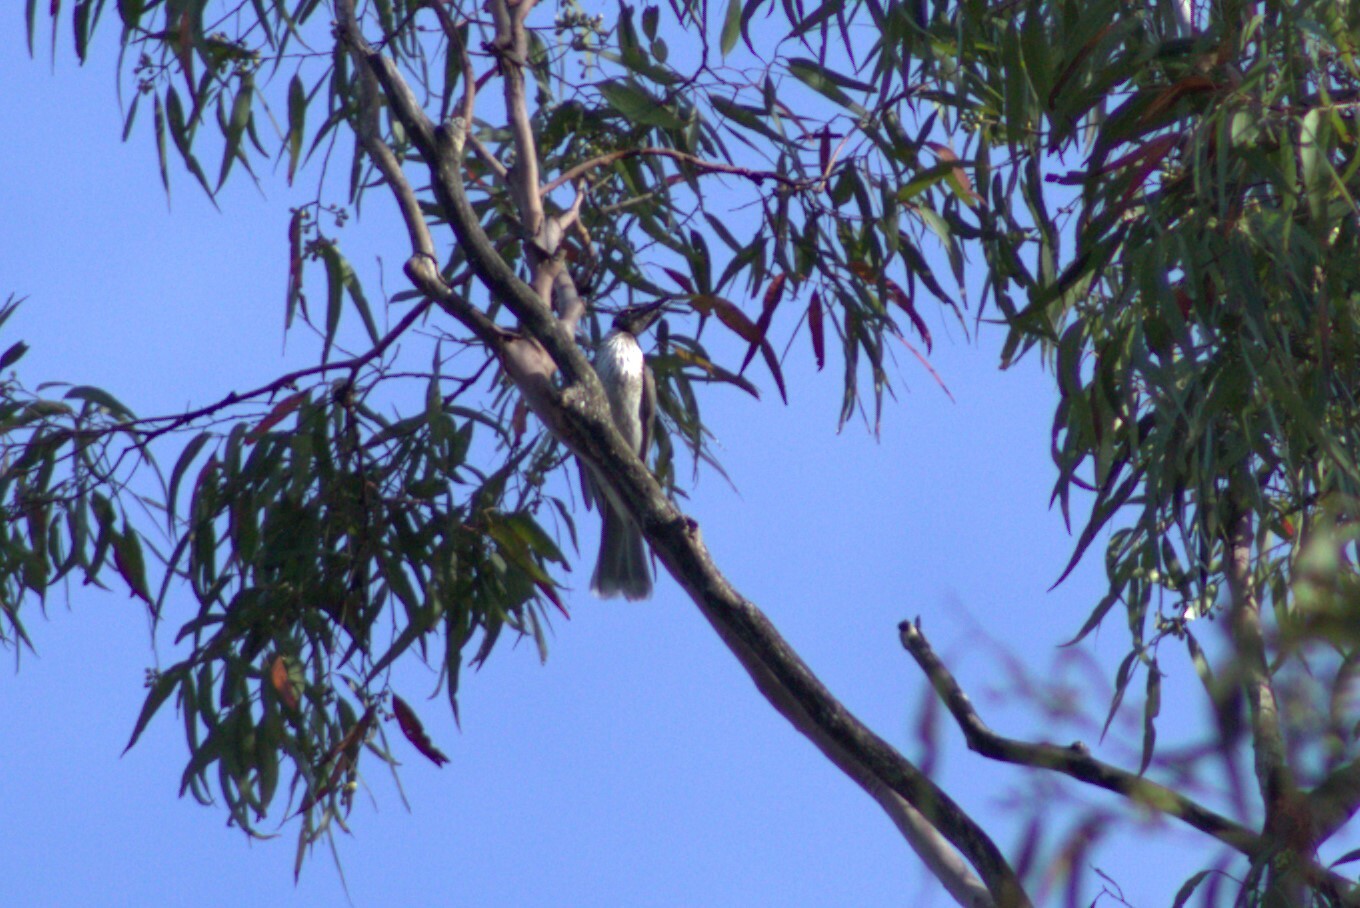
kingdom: Animalia
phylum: Chordata
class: Aves
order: Passeriformes
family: Meliphagidae
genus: Philemon
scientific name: Philemon corniculatus
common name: Noisy friarbird
